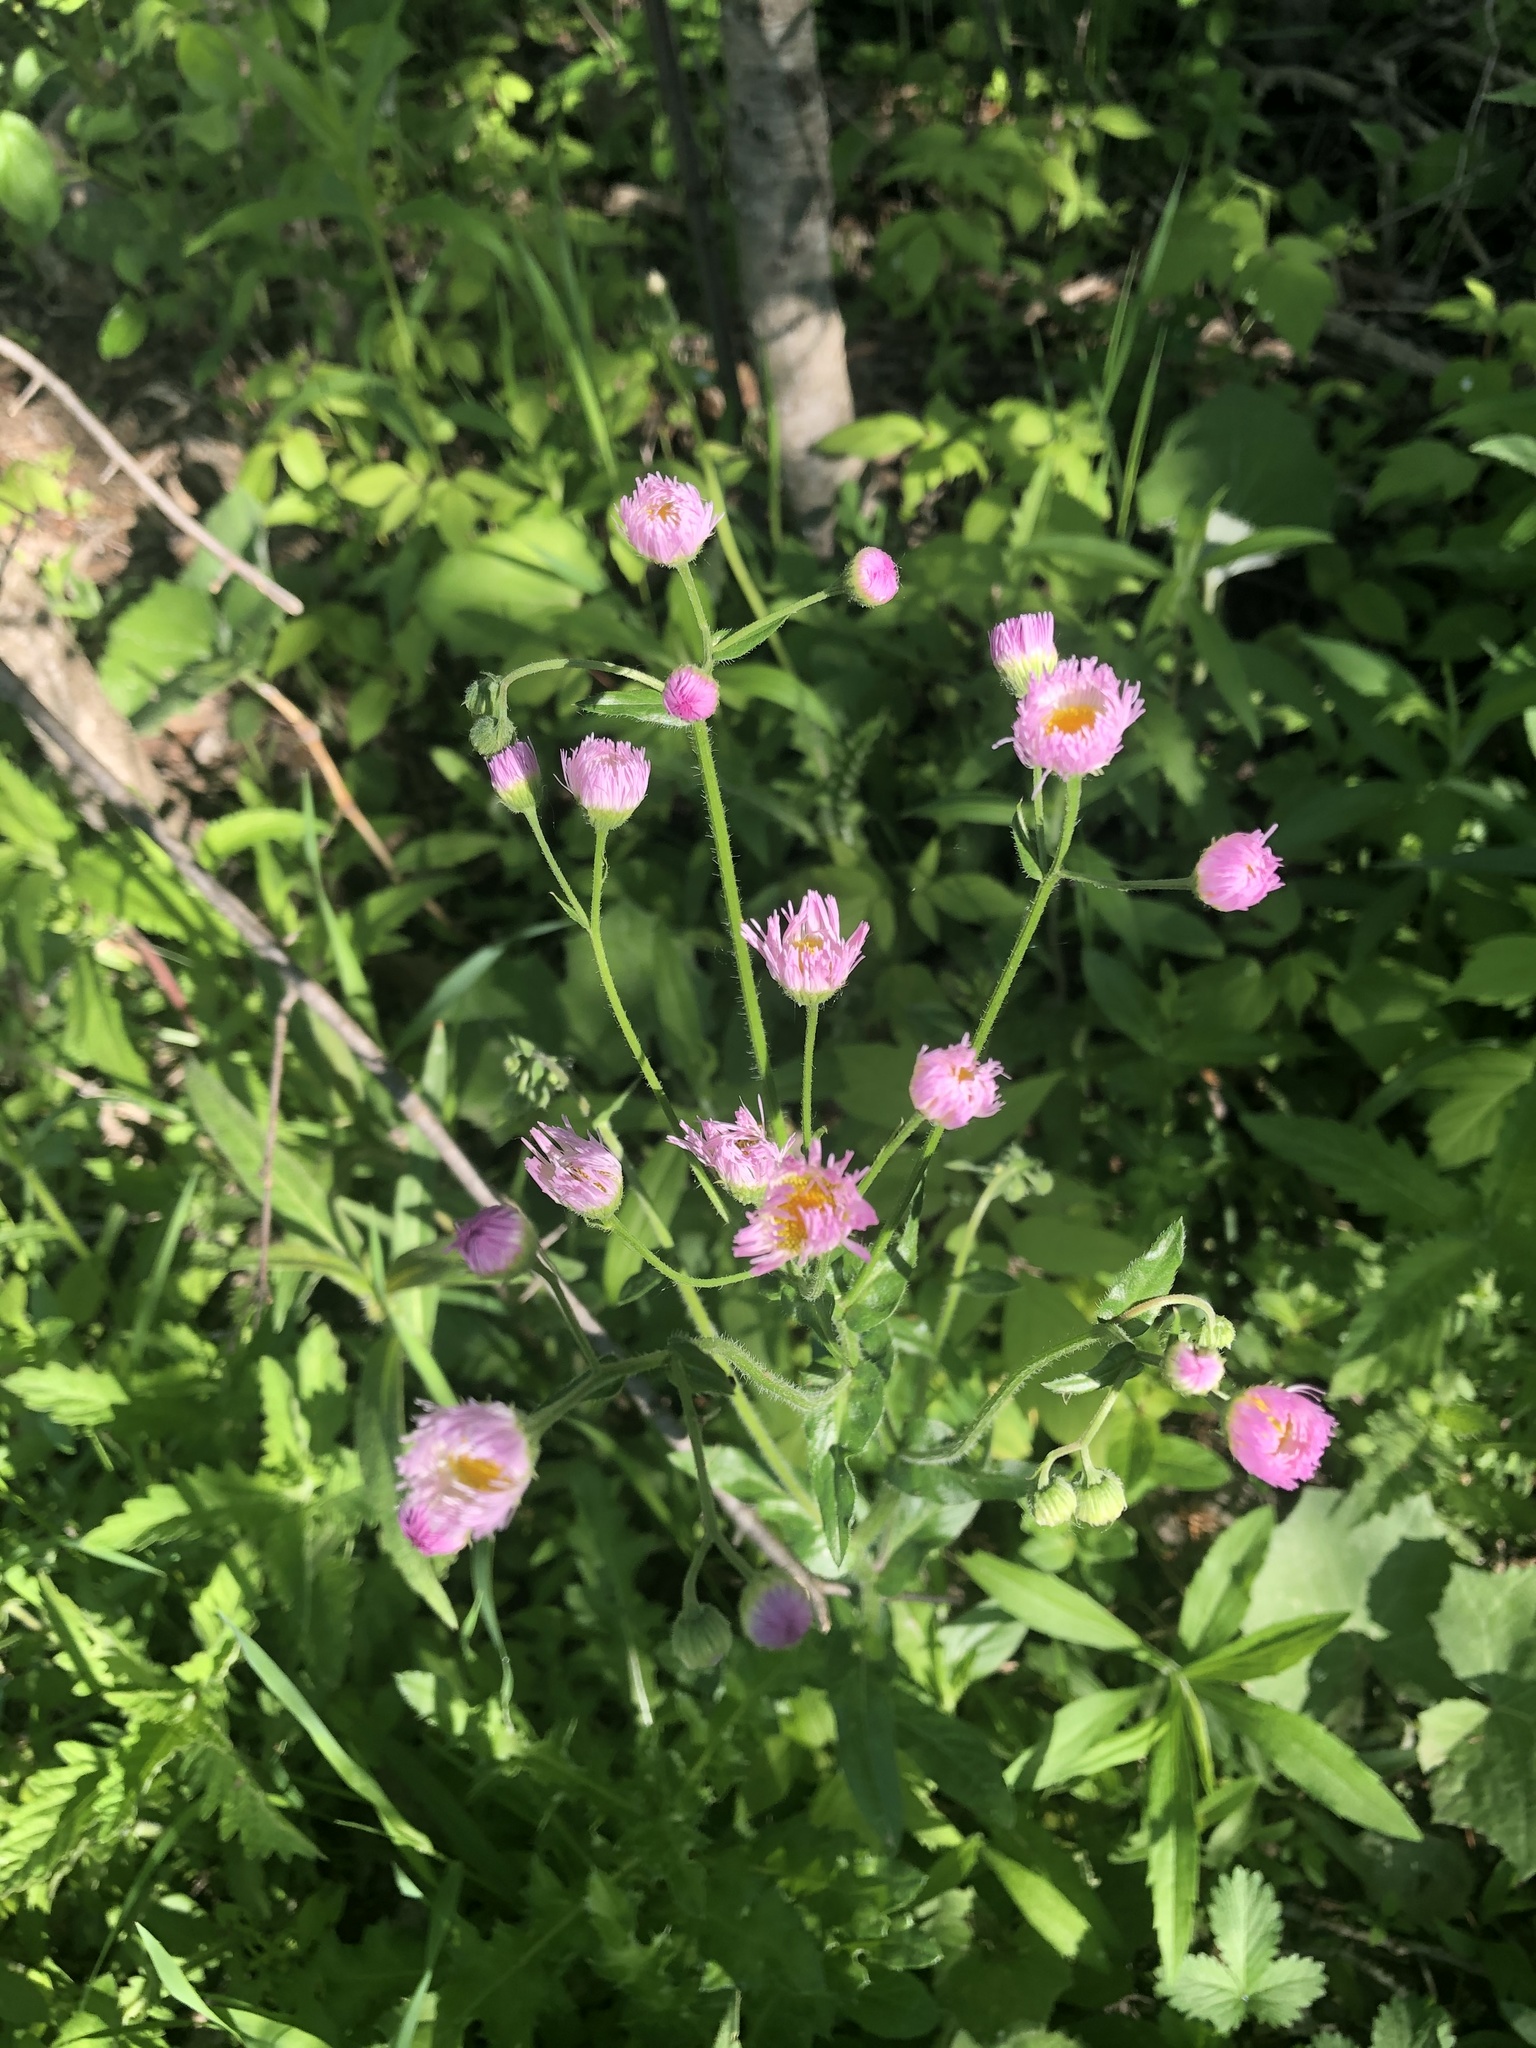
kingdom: Plantae
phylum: Tracheophyta
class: Magnoliopsida
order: Asterales
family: Asteraceae
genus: Erigeron
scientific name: Erigeron philadelphicus
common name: Robin's-plantain
